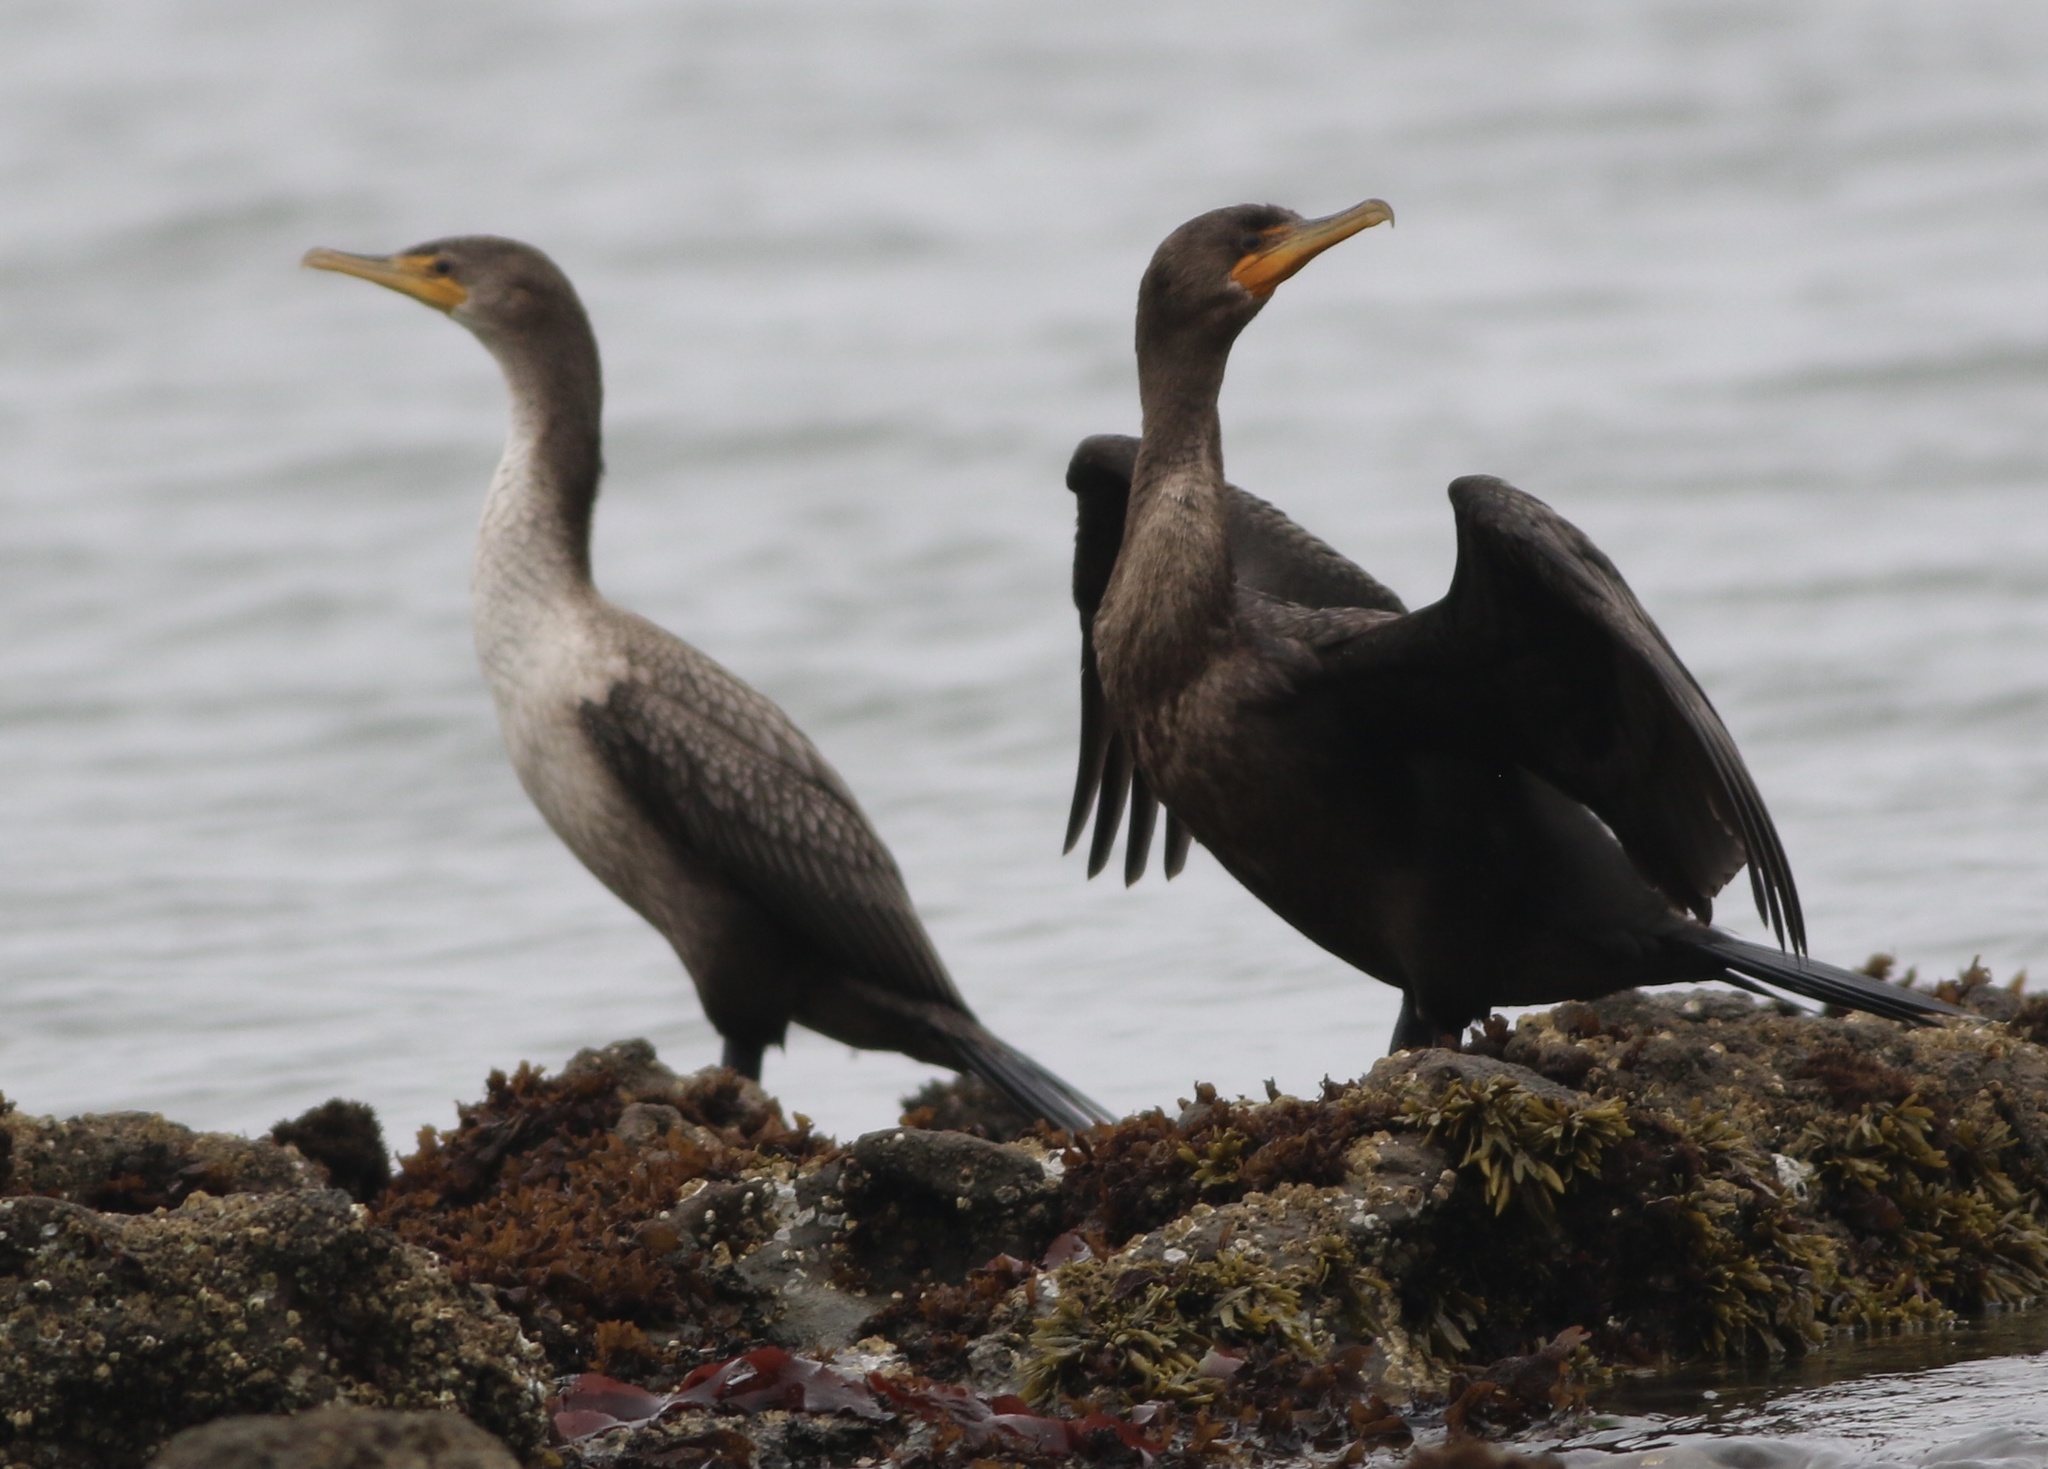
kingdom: Animalia
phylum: Chordata
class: Aves
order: Suliformes
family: Phalacrocoracidae
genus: Phalacrocorax
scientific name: Phalacrocorax auritus
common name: Double-crested cormorant
